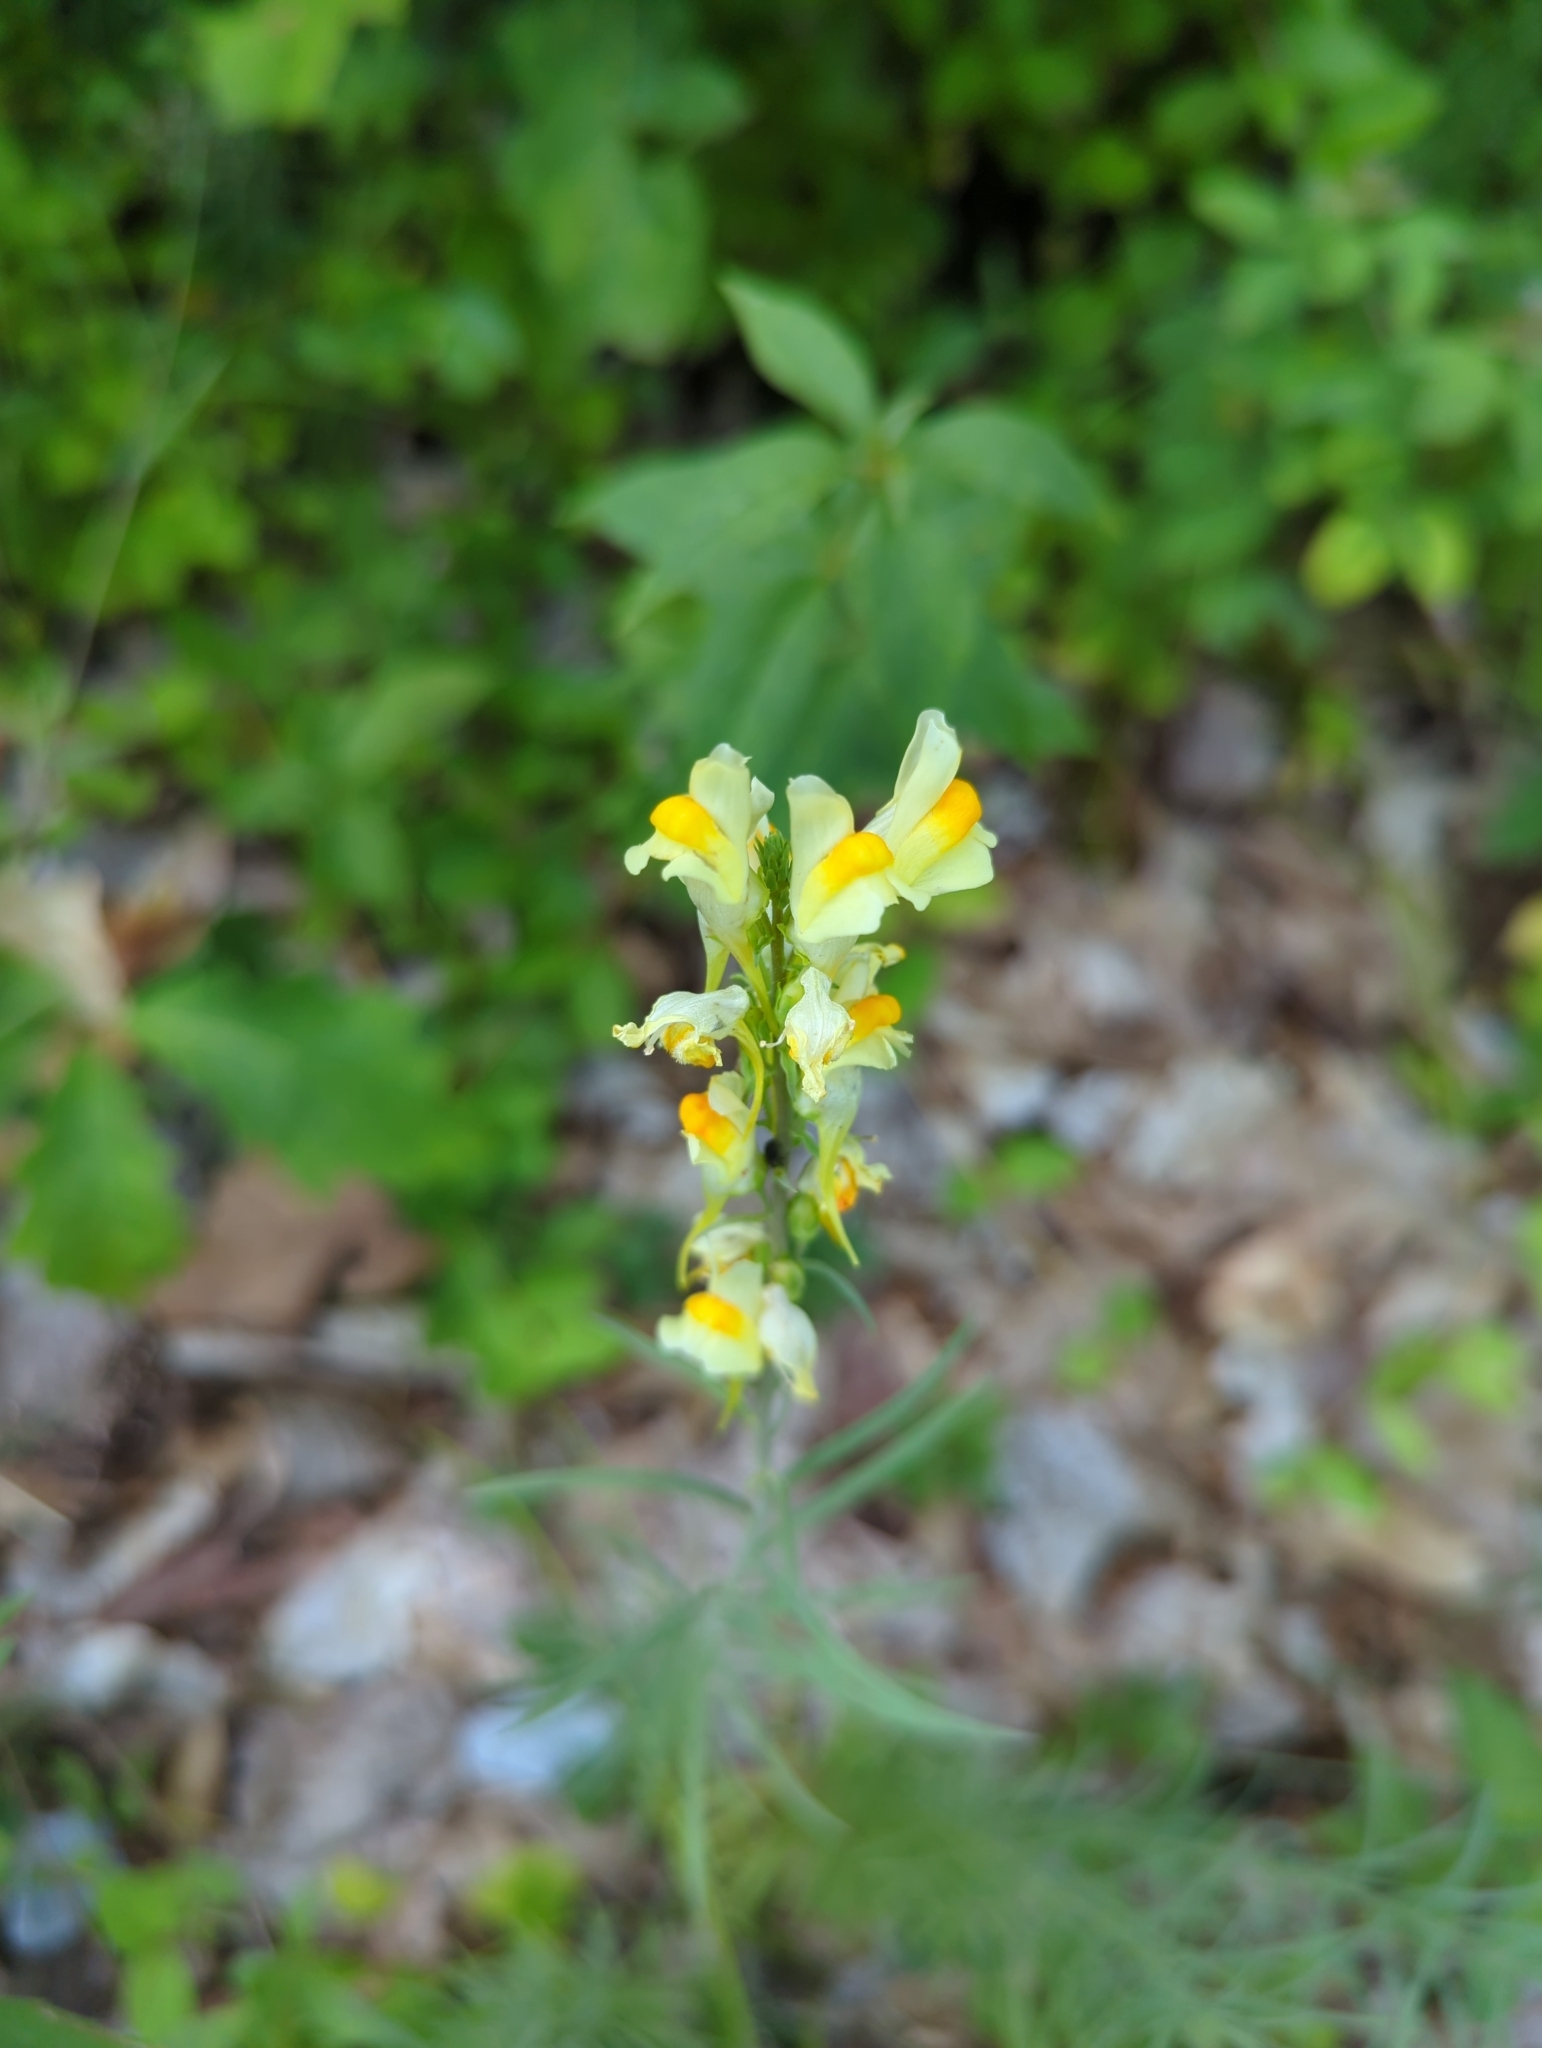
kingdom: Plantae
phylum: Tracheophyta
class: Magnoliopsida
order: Lamiales
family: Plantaginaceae
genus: Linaria
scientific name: Linaria vulgaris
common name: Butter and eggs
